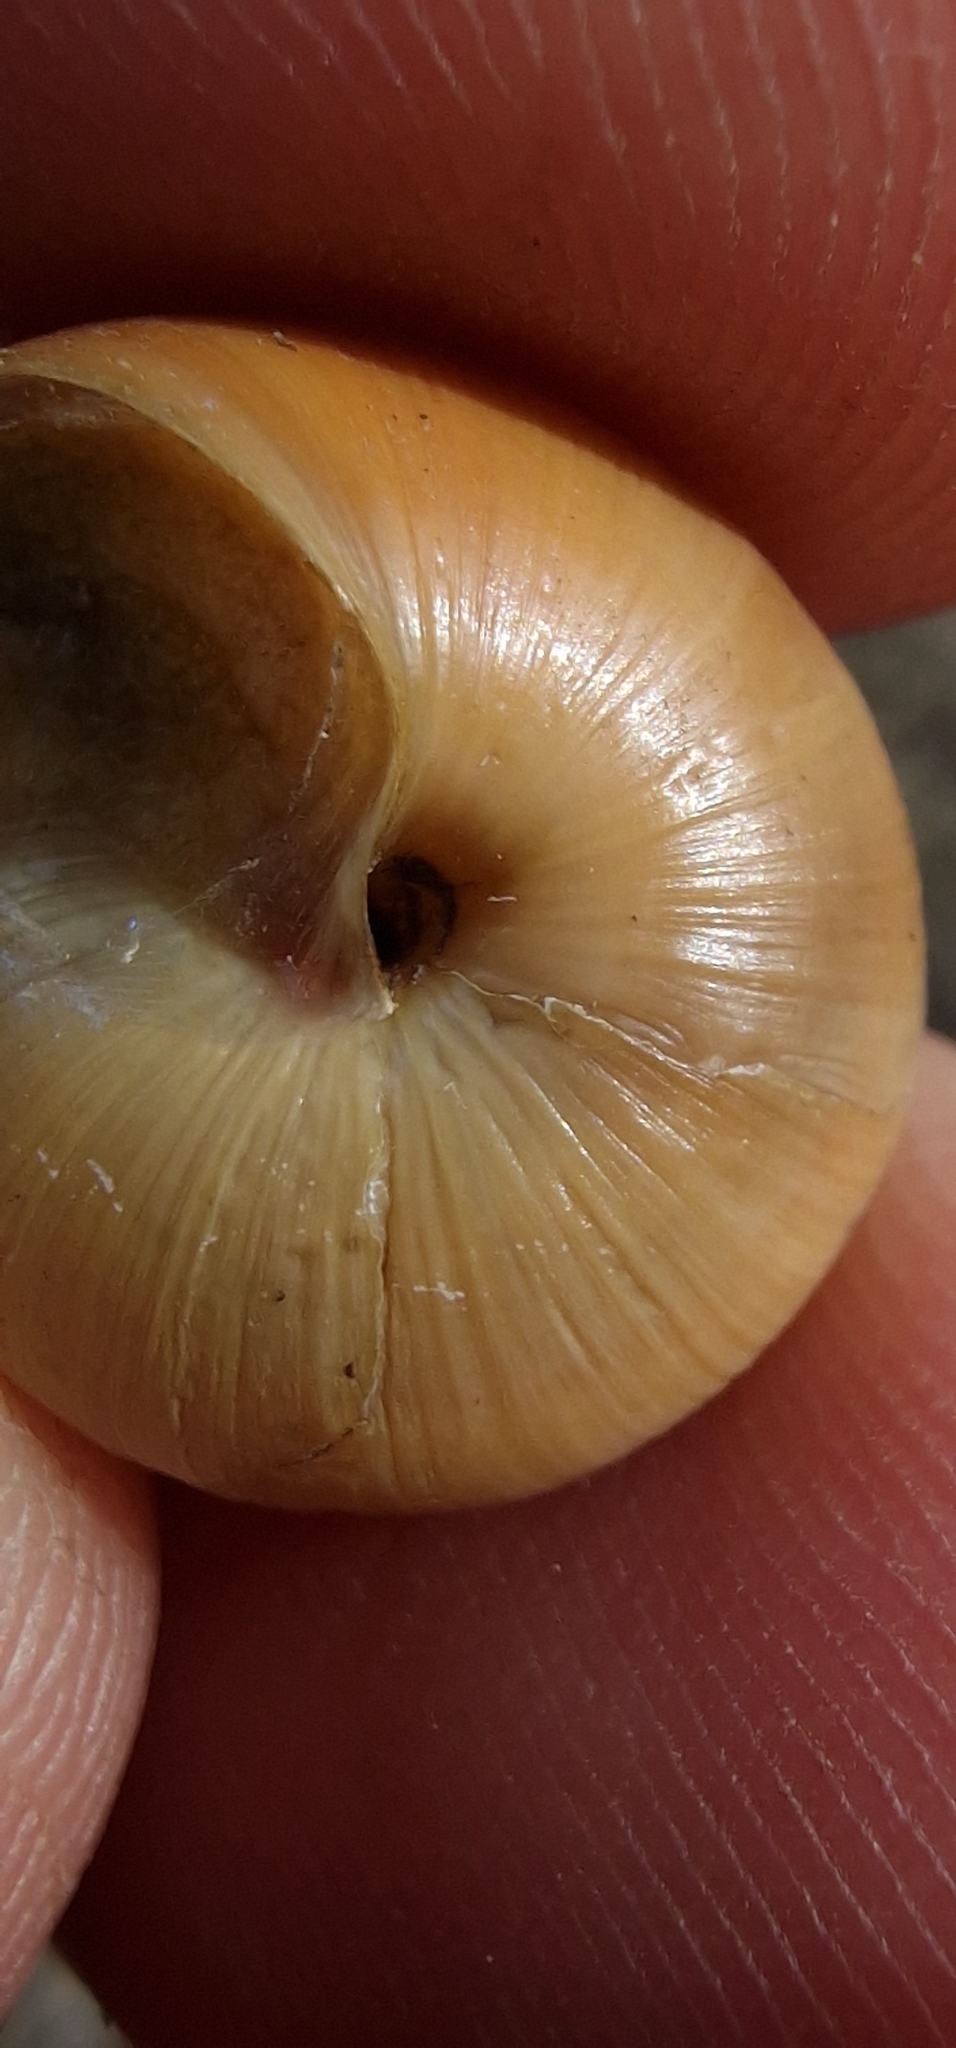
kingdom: Animalia
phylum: Mollusca
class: Gastropoda
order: Stylommatophora
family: Helicidae
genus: Cepaea
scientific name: Cepaea nemoralis
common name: Grovesnail
